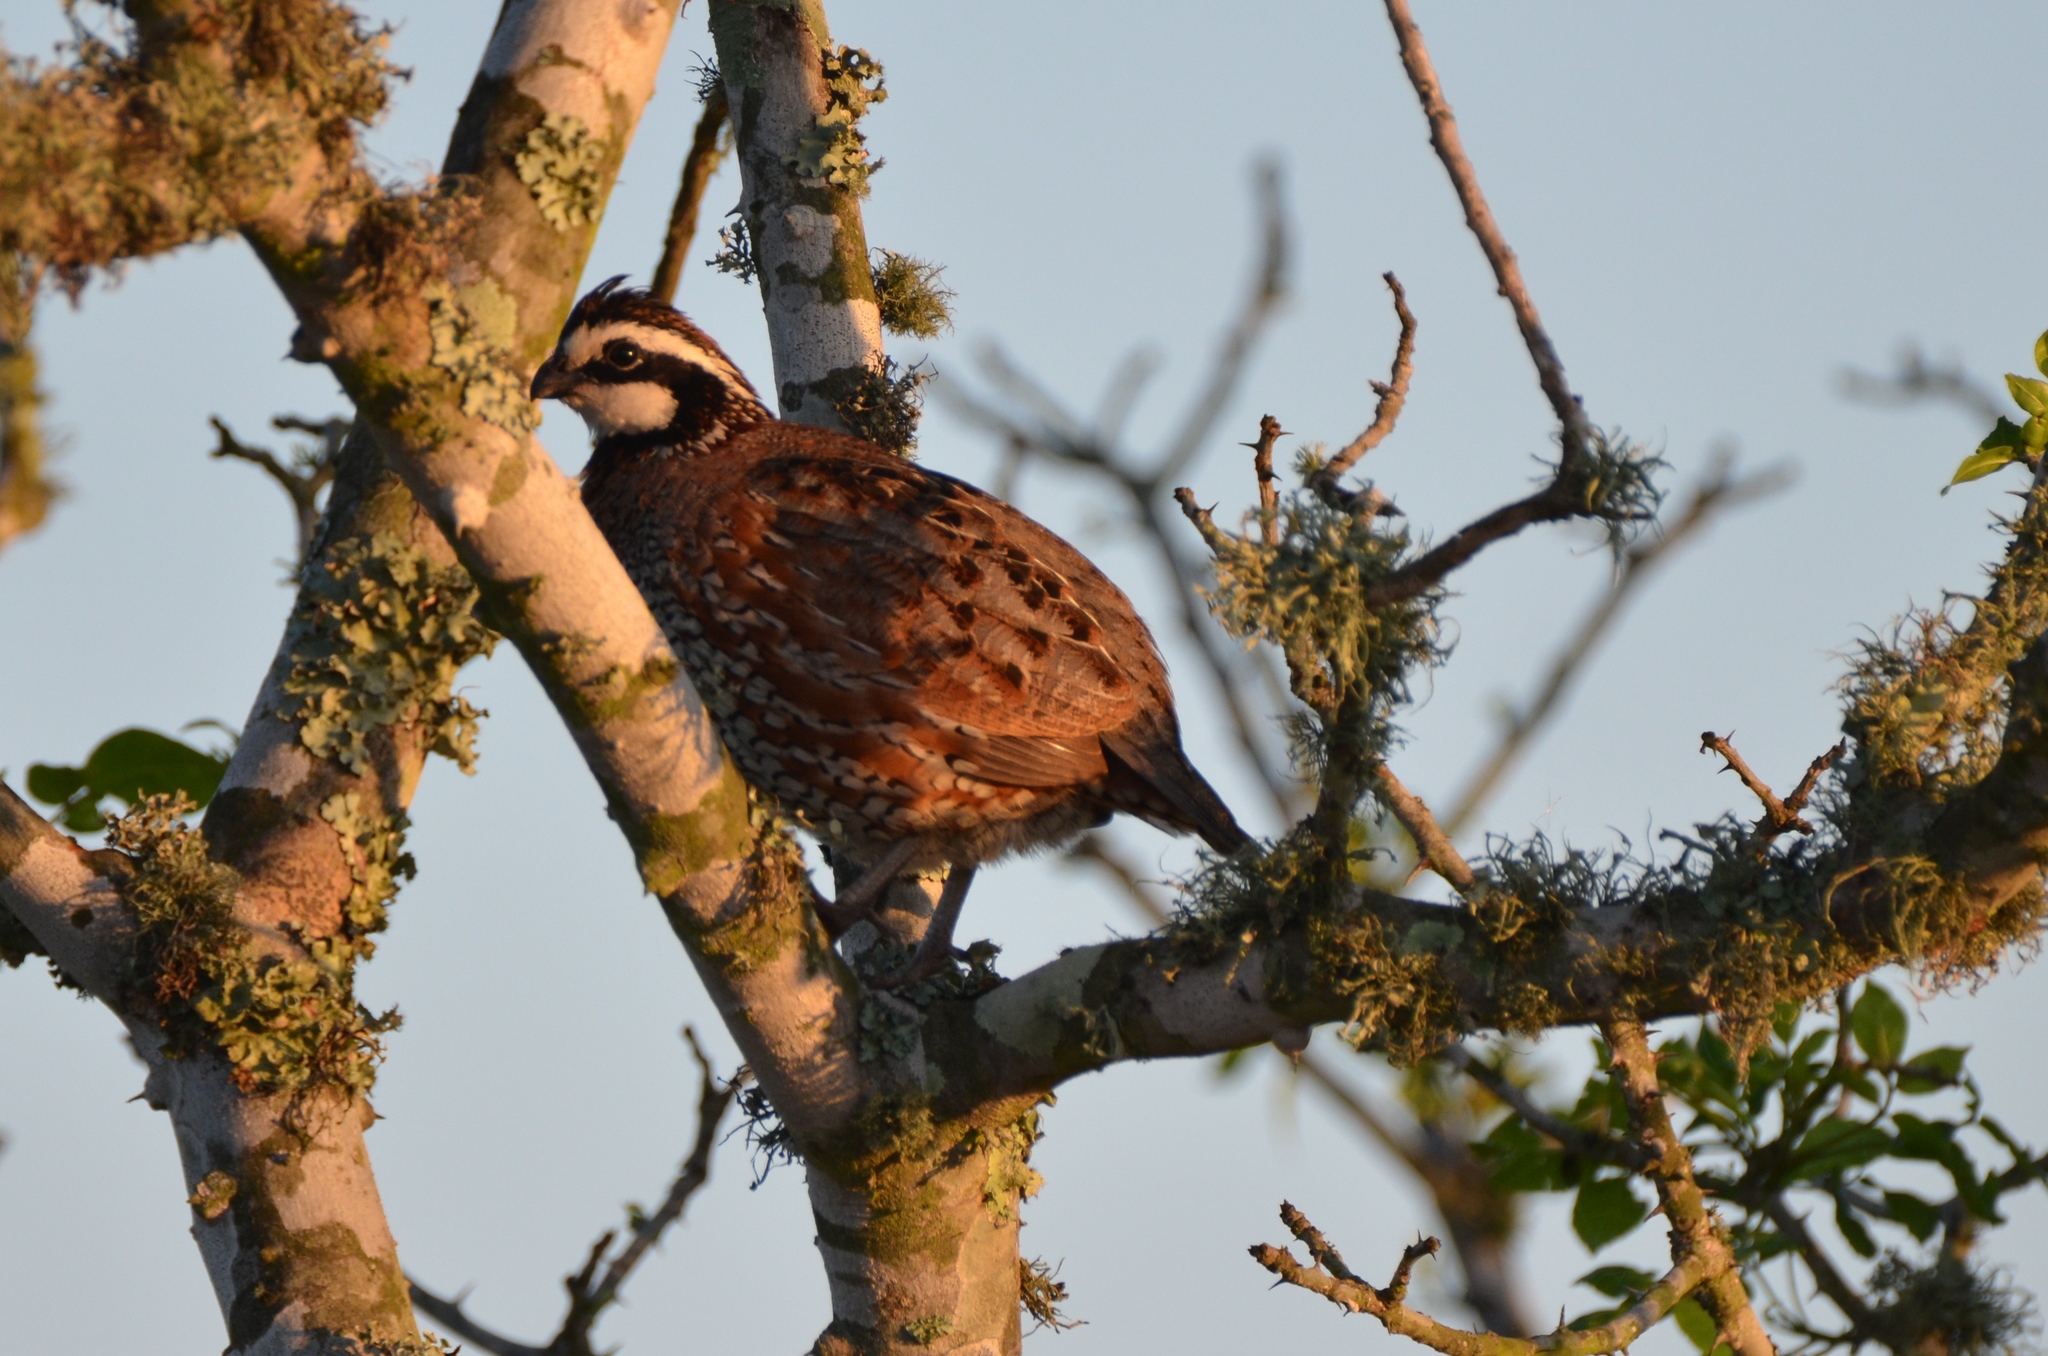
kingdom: Animalia
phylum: Chordata
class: Aves
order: Galliformes
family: Odontophoridae
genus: Colinus
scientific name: Colinus virginianus
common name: Northern bobwhite
